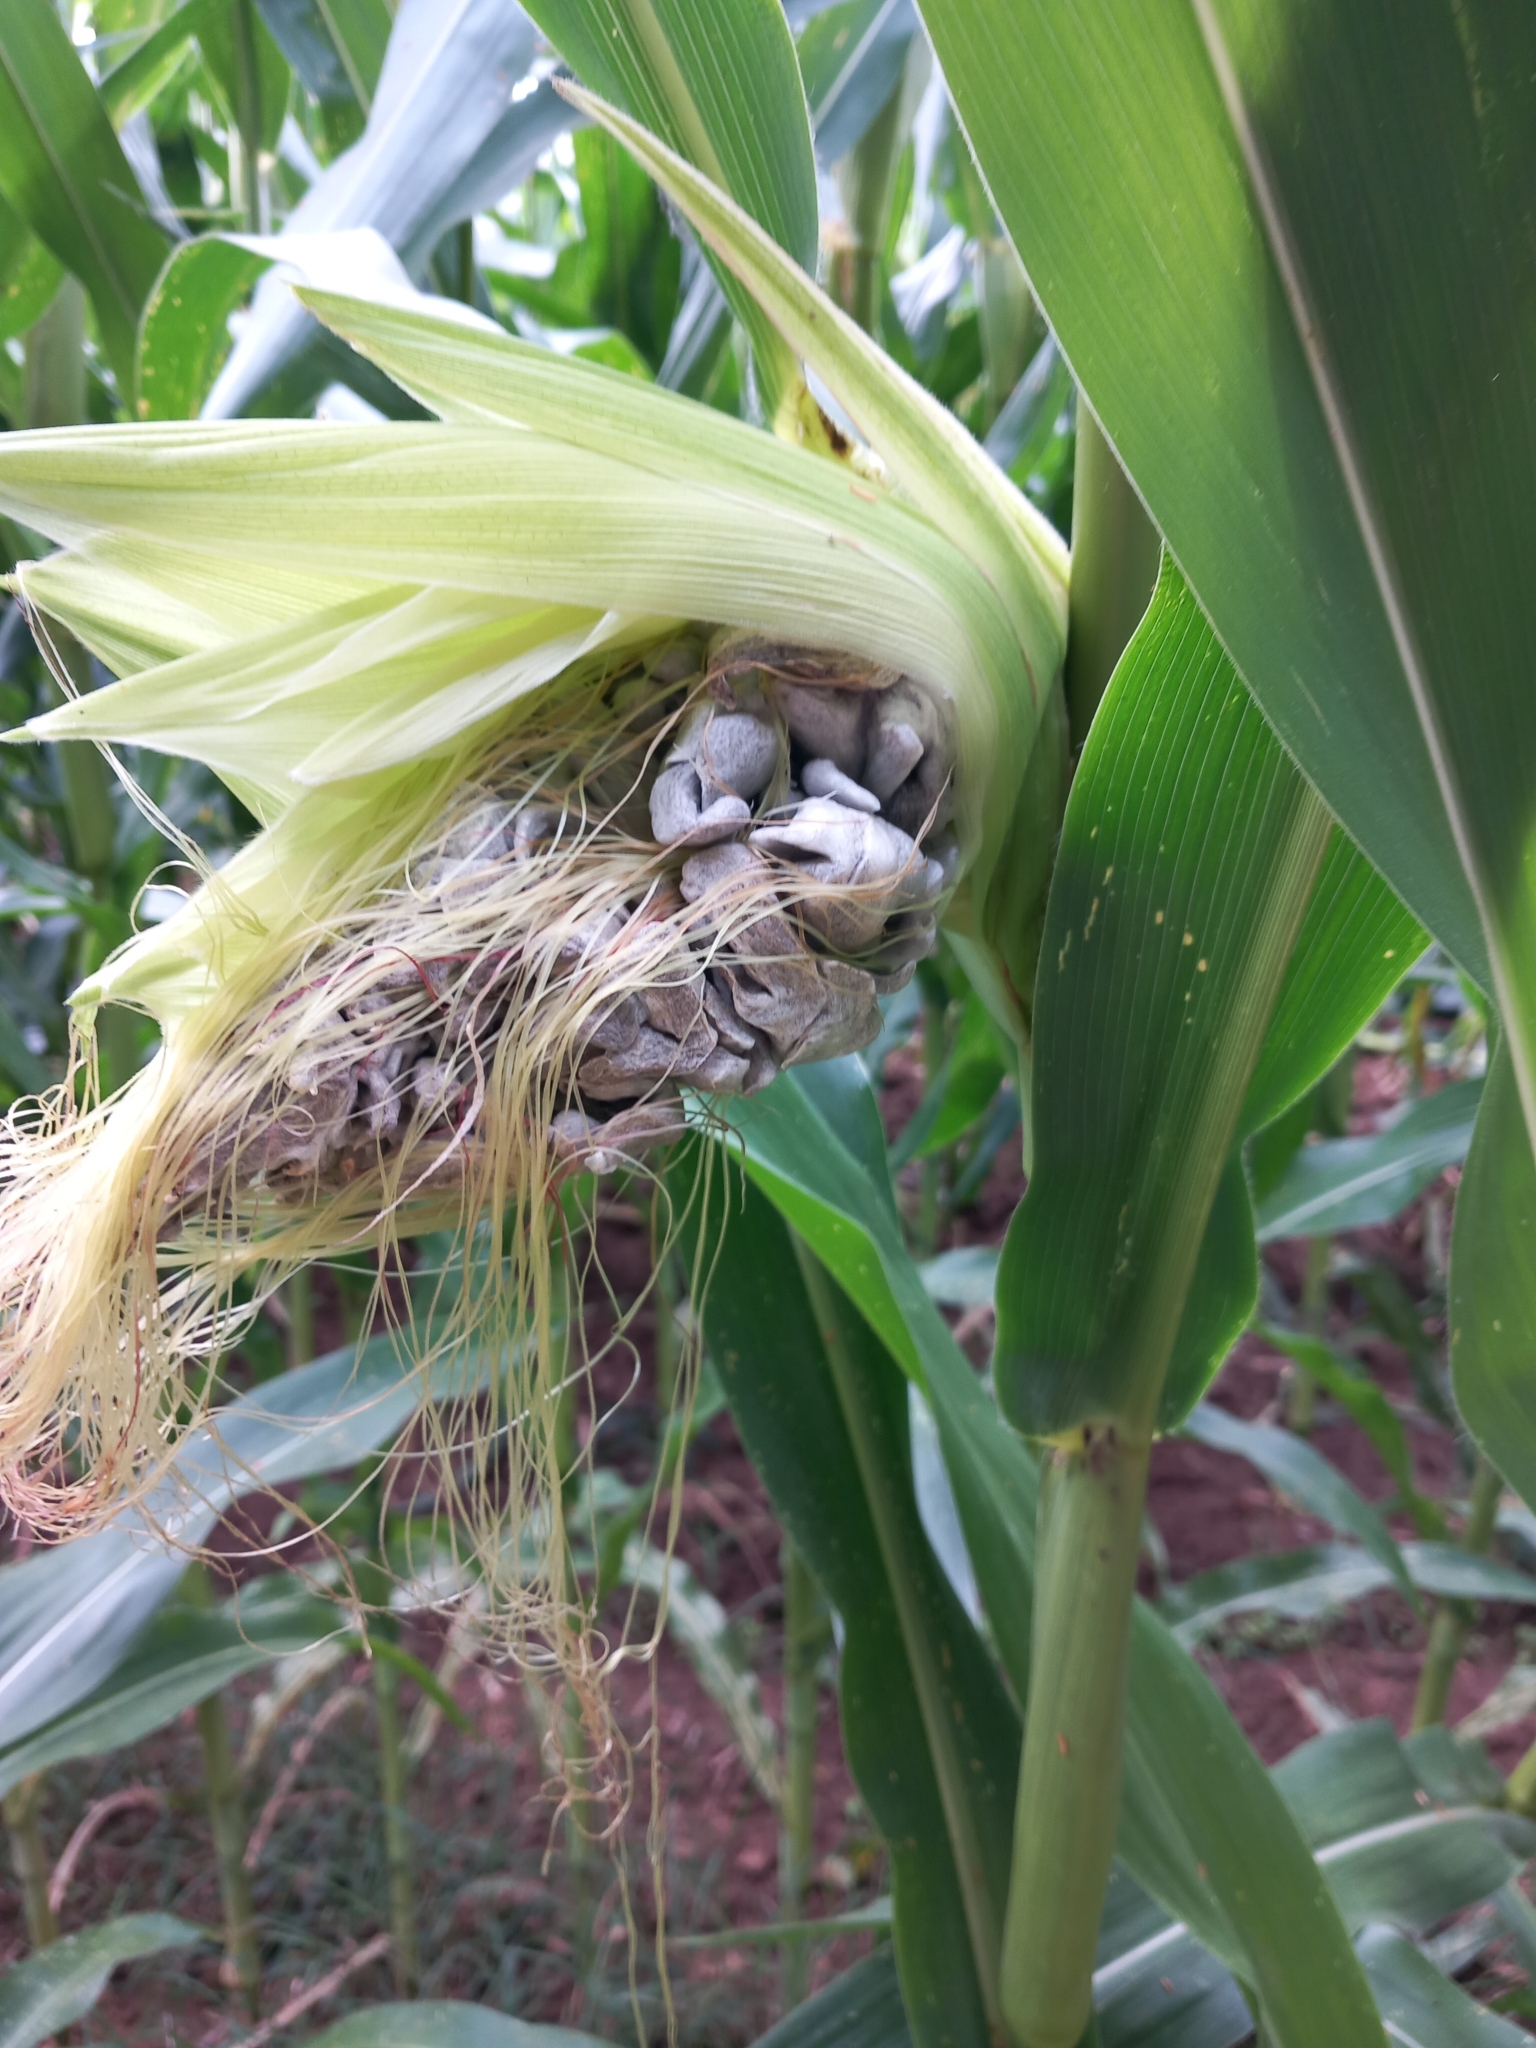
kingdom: Fungi
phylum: Basidiomycota
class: Ustilaginomycetes
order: Ustilaginales
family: Ustilaginaceae
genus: Mycosarcoma
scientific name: Mycosarcoma maydis
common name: Corn smut
